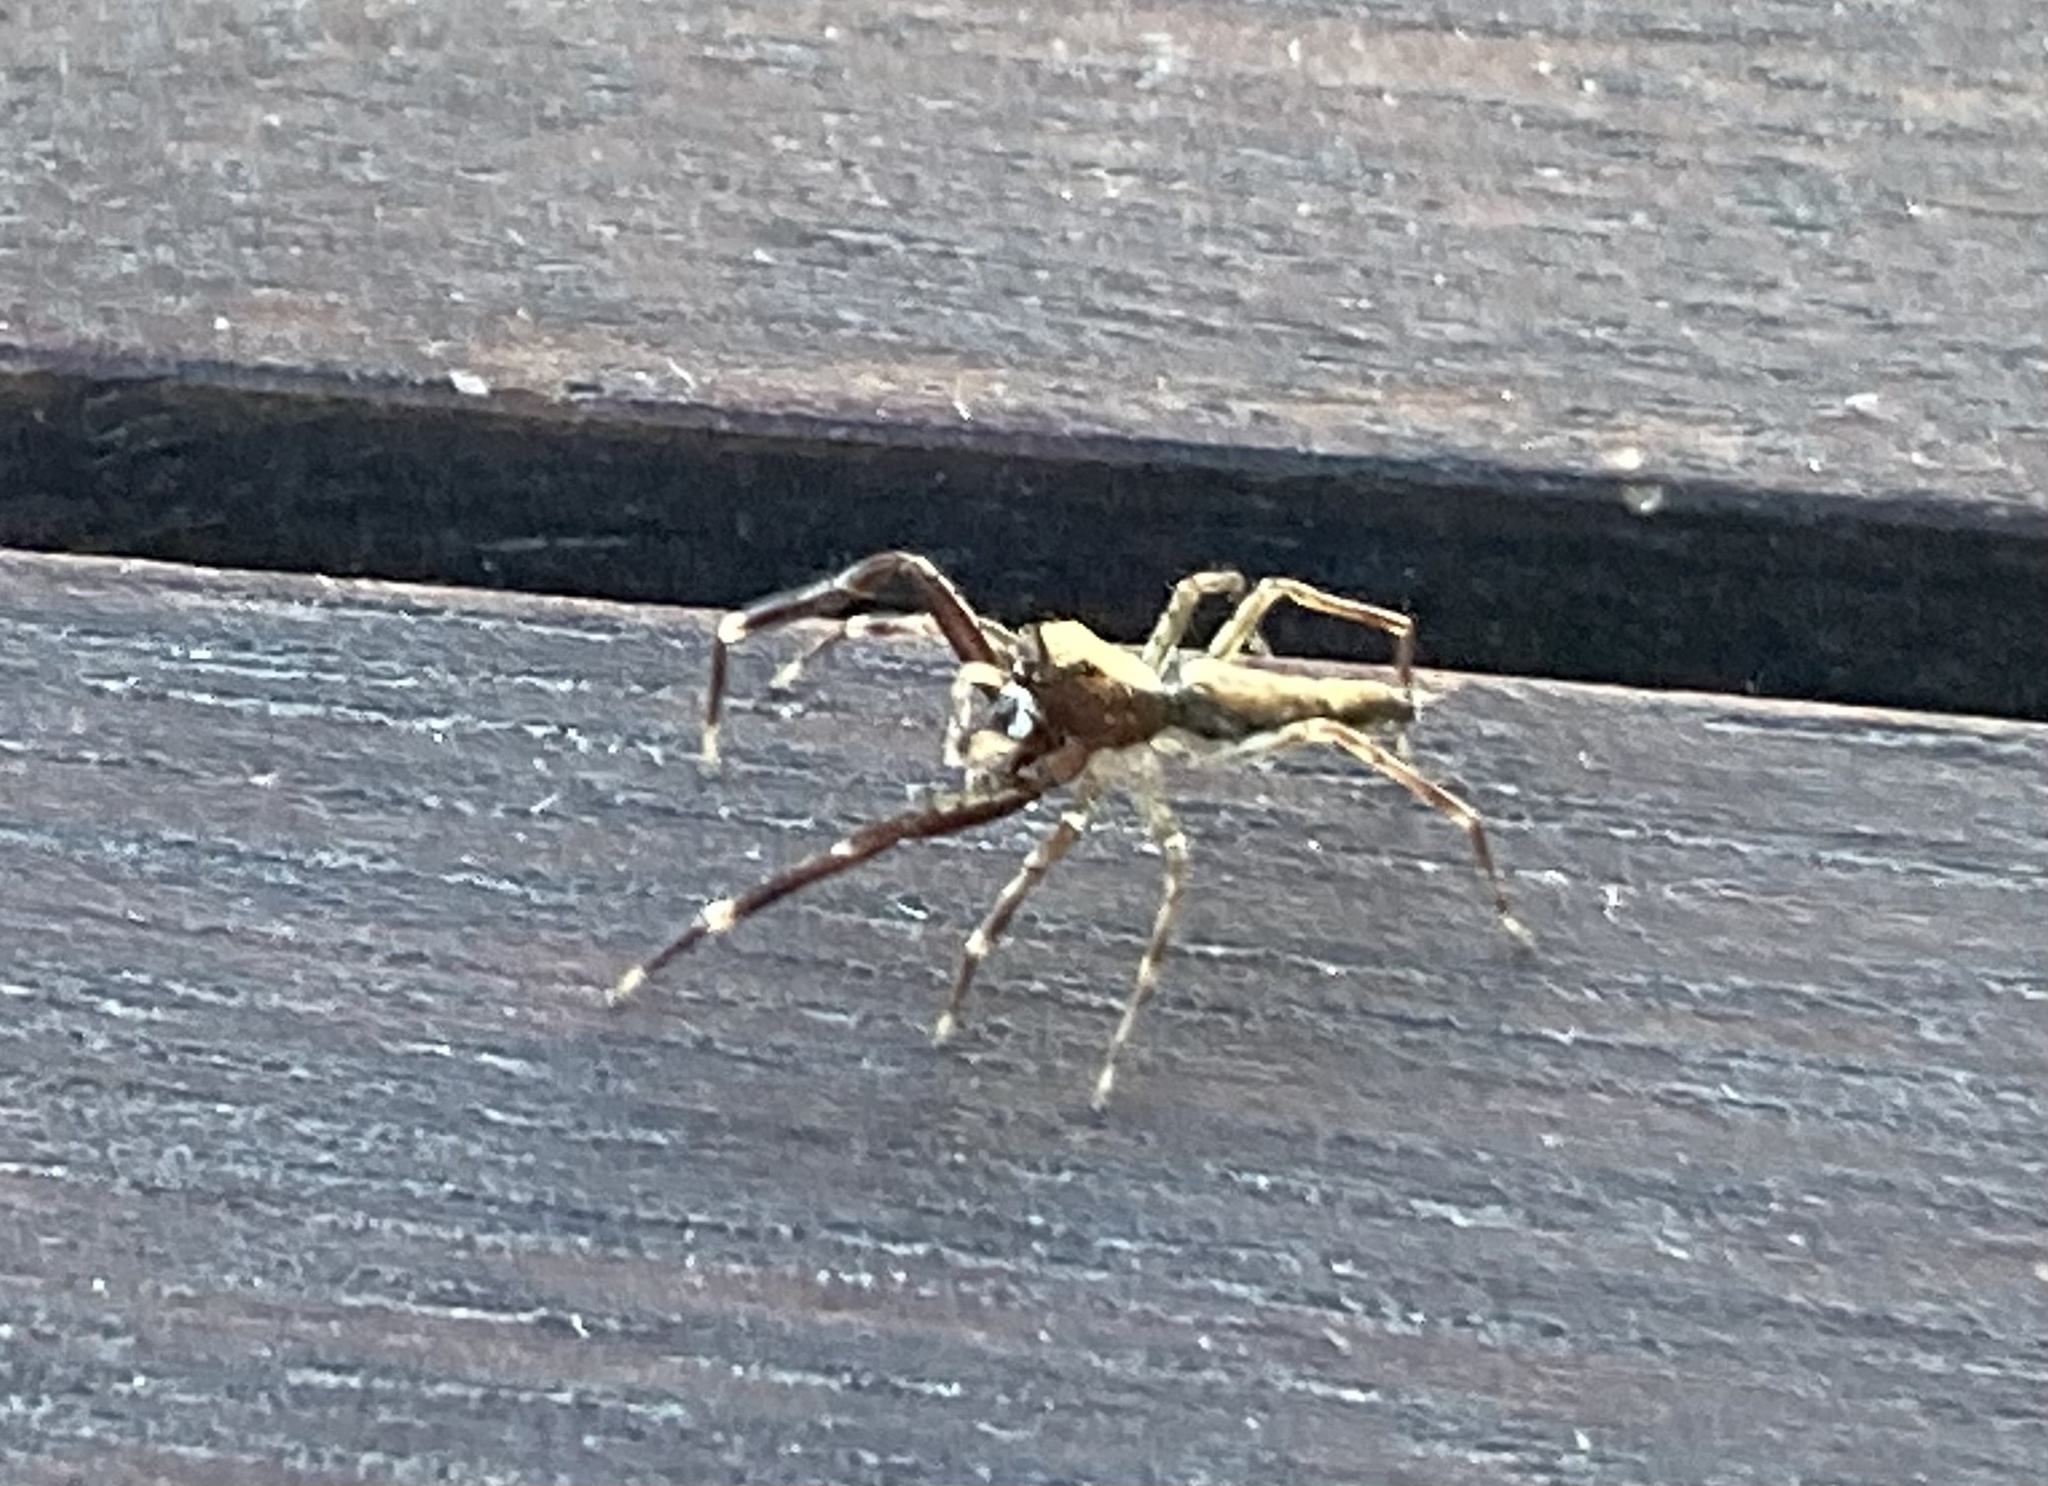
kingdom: Animalia
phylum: Arthropoda
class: Arachnida
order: Araneae
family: Salticidae
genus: Helpis
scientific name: Helpis minitabunda
